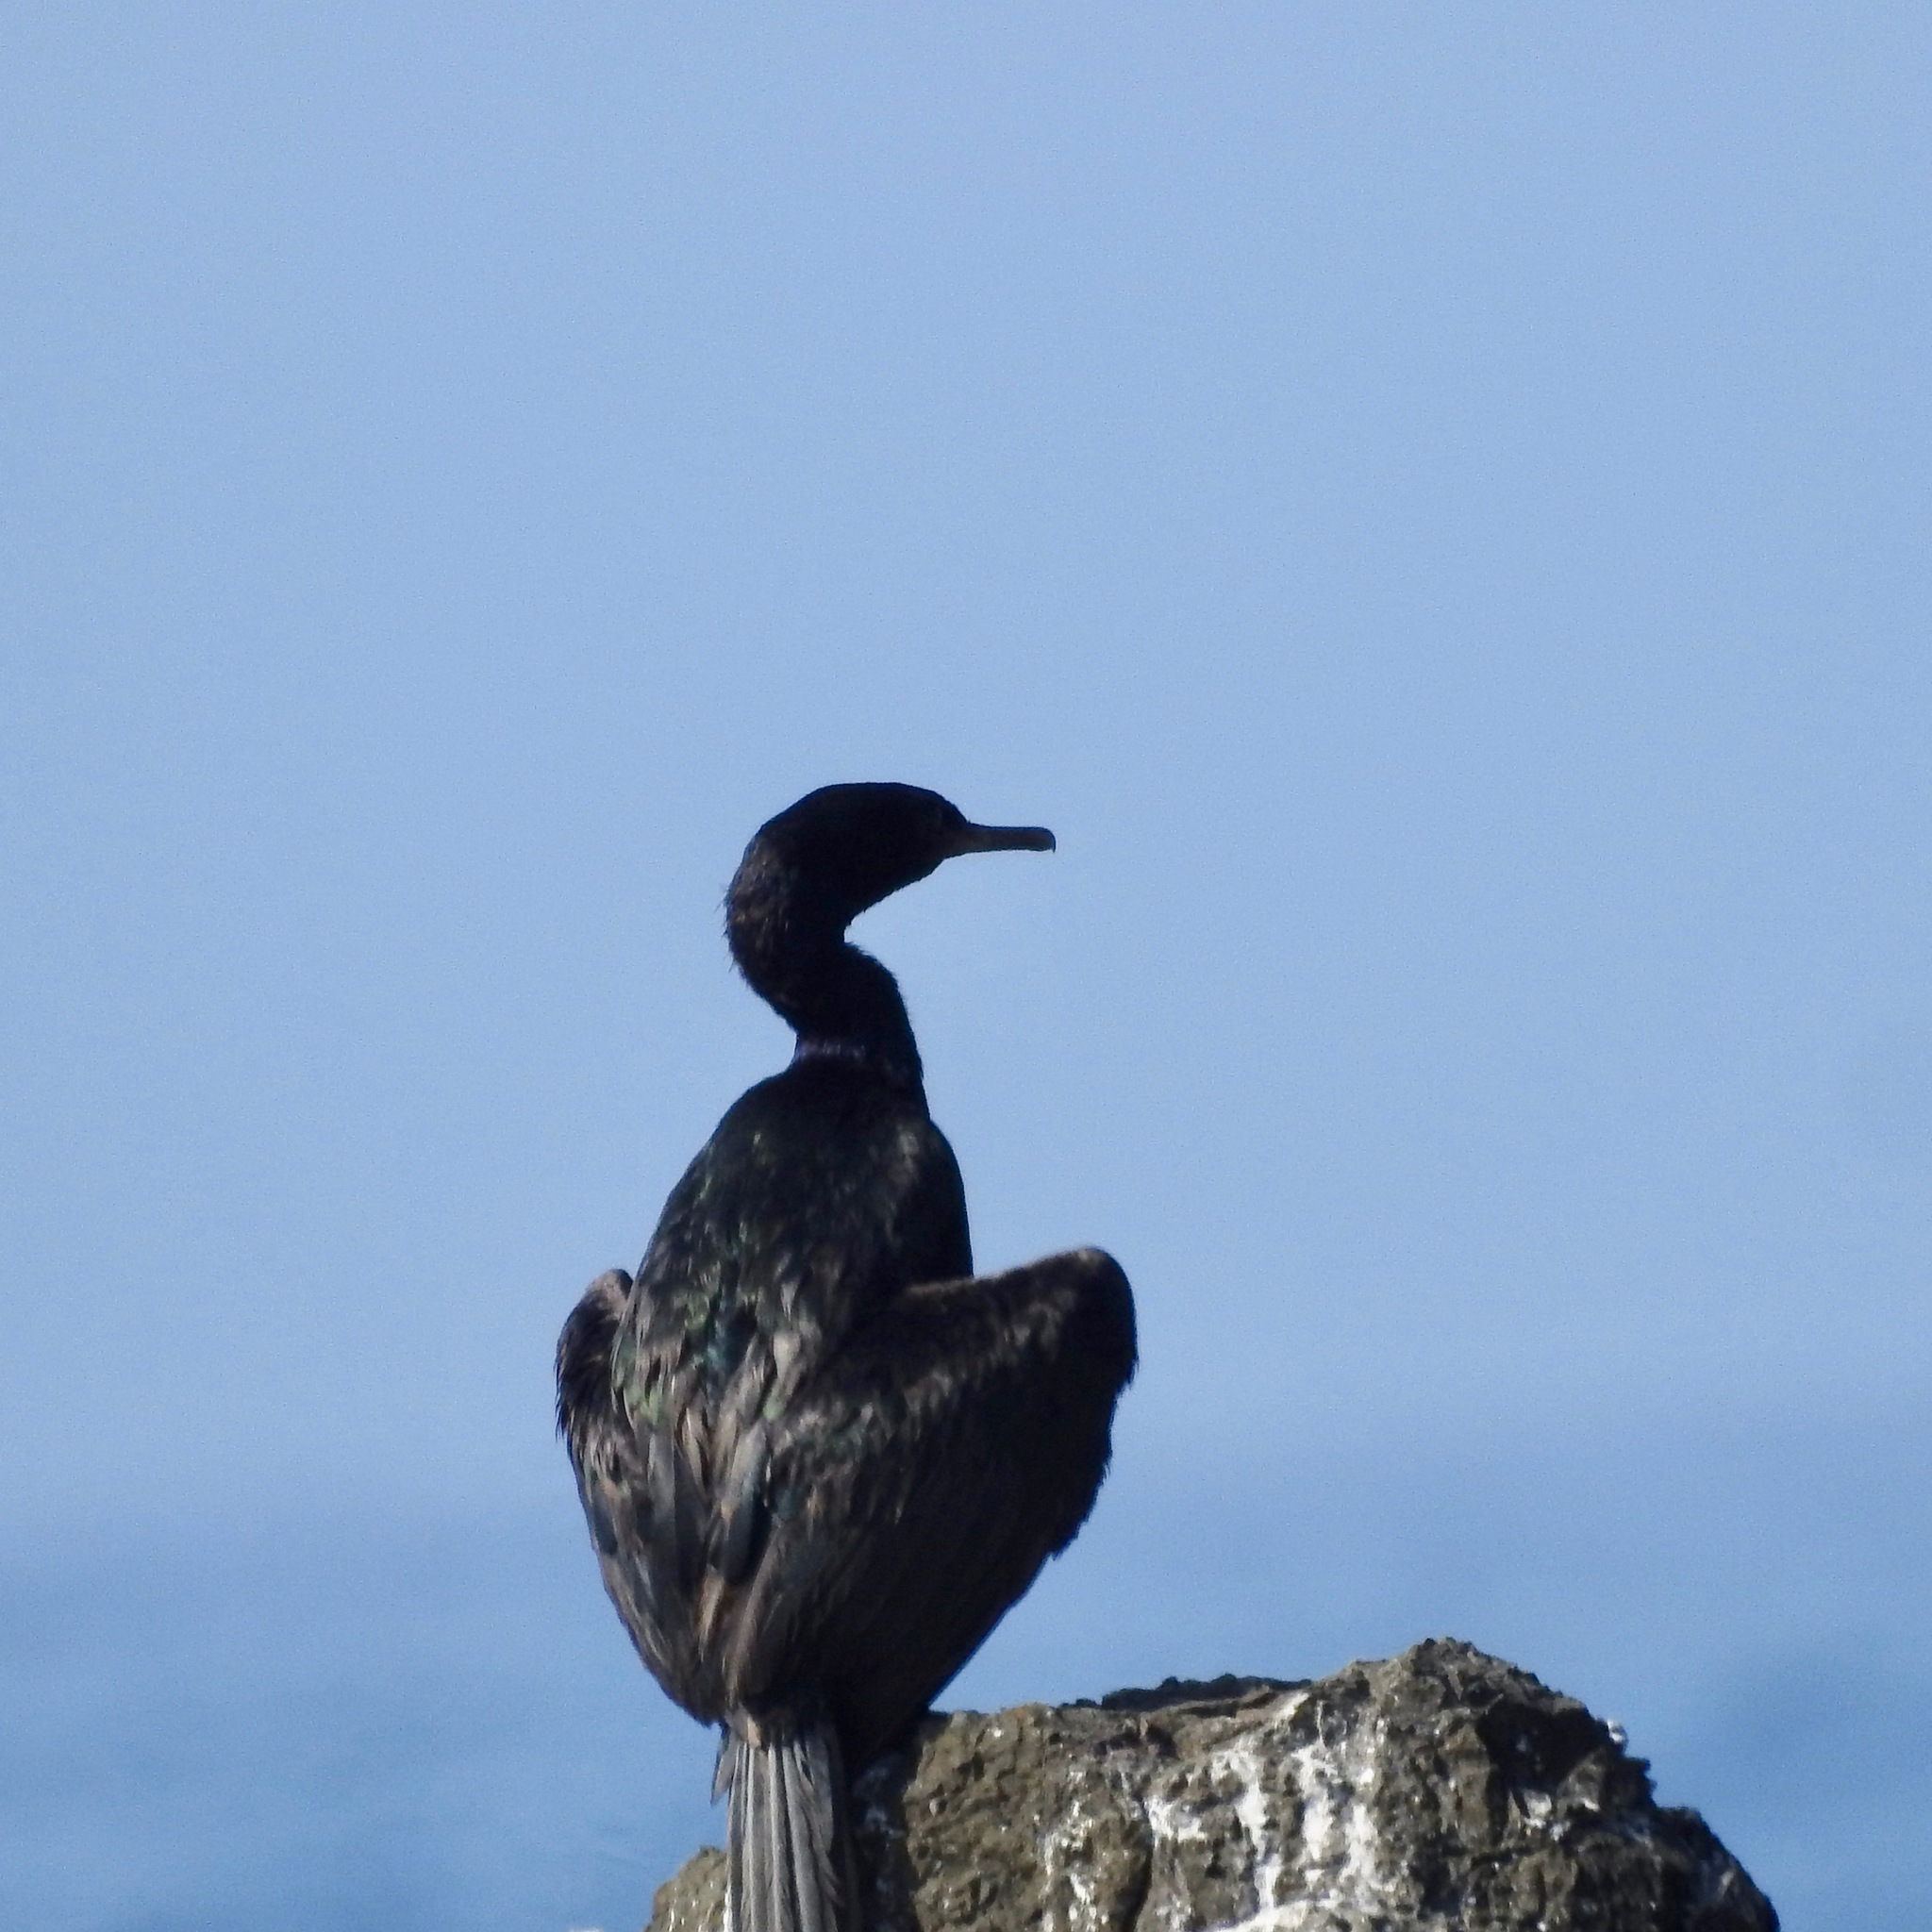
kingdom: Animalia
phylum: Chordata
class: Aves
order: Suliformes
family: Phalacrocoracidae
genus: Phalacrocorax
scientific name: Phalacrocorax pelagicus
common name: Pelagic cormorant
